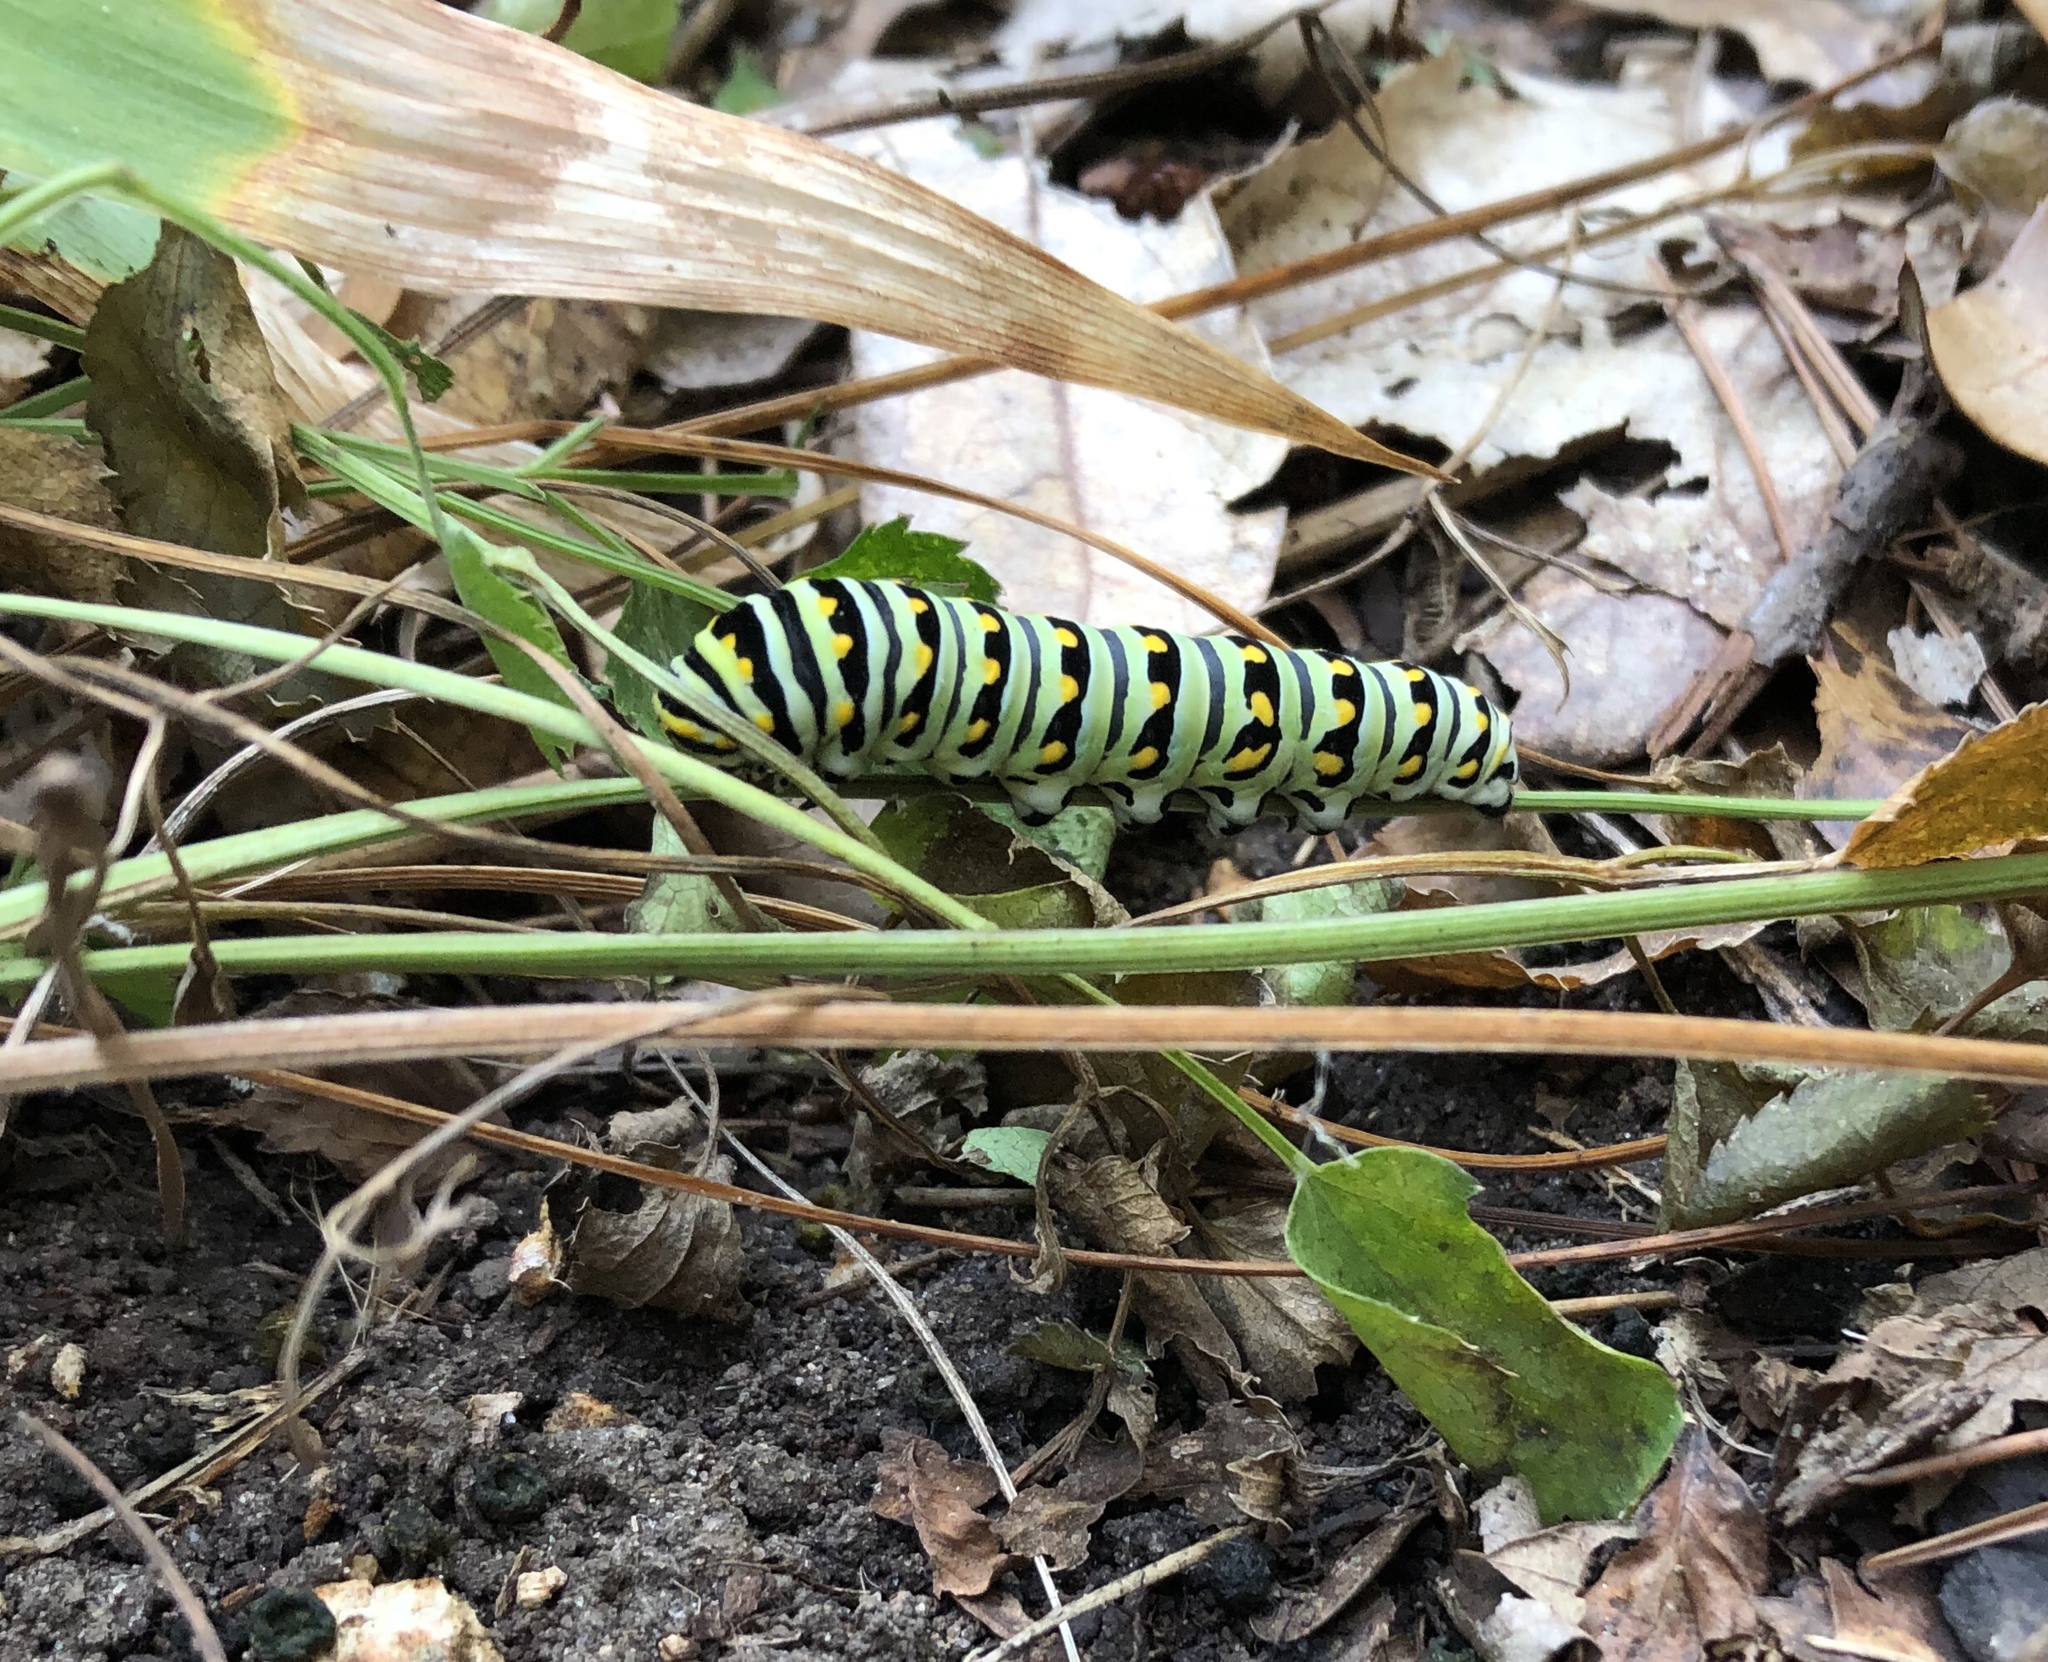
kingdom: Animalia
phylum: Arthropoda
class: Insecta
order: Lepidoptera
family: Papilionidae
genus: Papilio
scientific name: Papilio polyxenes
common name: Black swallowtail
